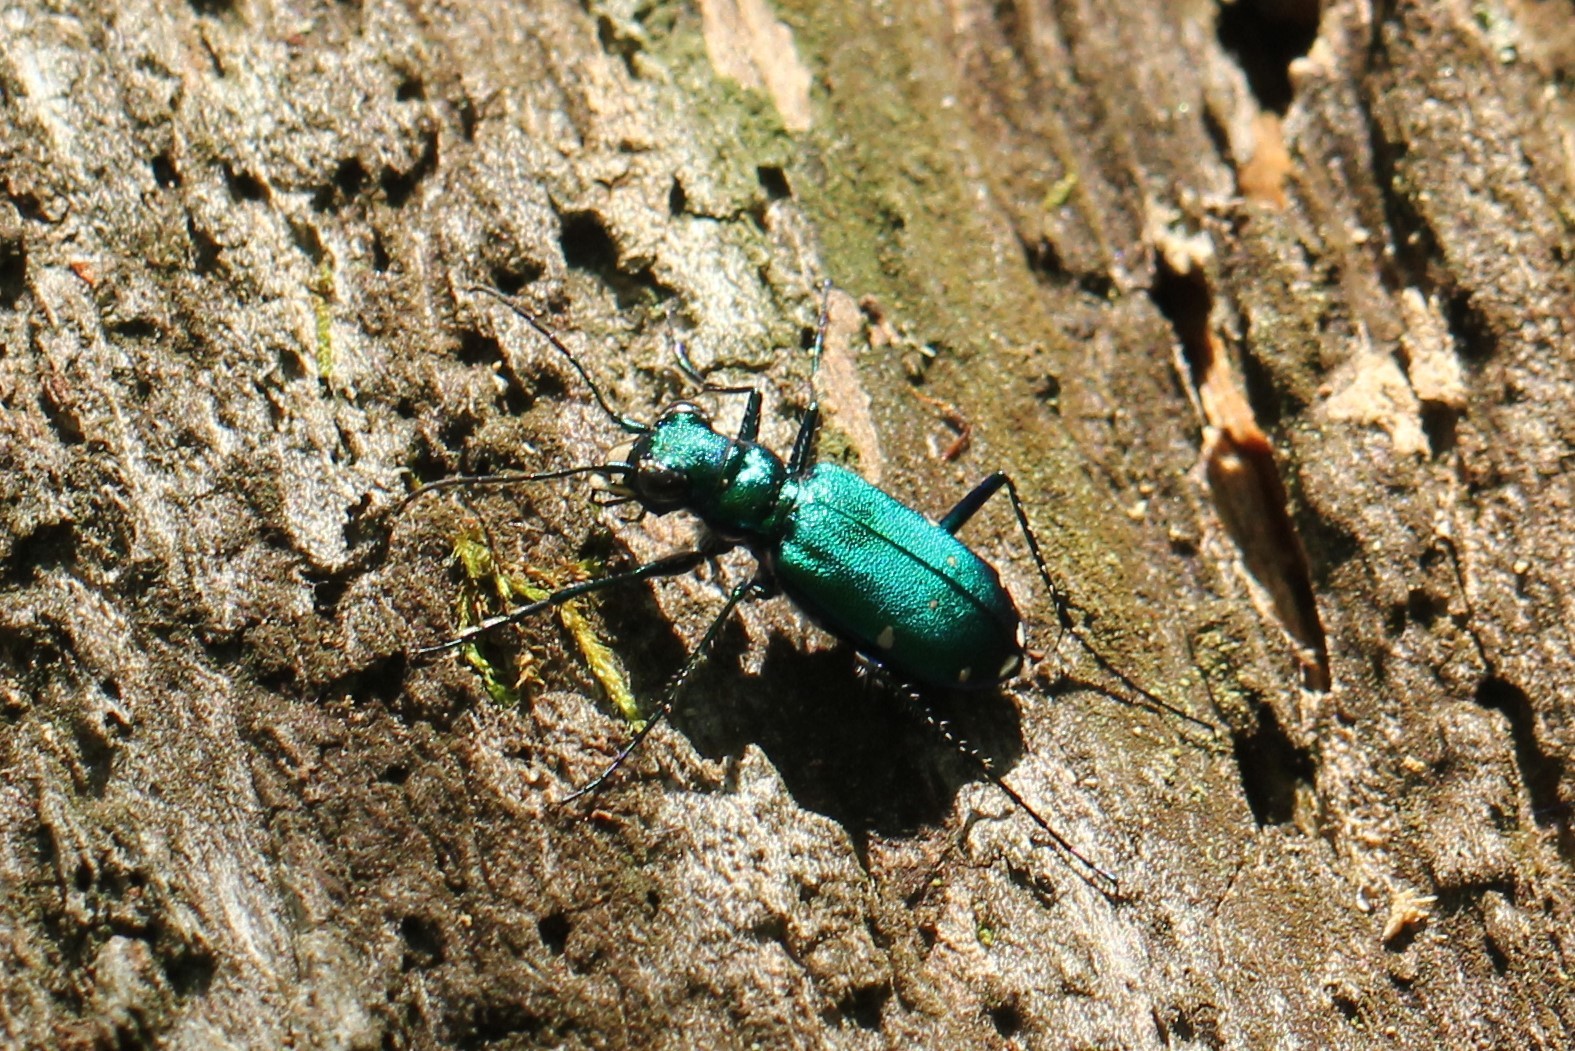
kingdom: Animalia
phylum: Arthropoda
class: Insecta
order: Coleoptera
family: Carabidae
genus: Cicindela
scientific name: Cicindela sexguttata
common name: Six-spotted tiger beetle
